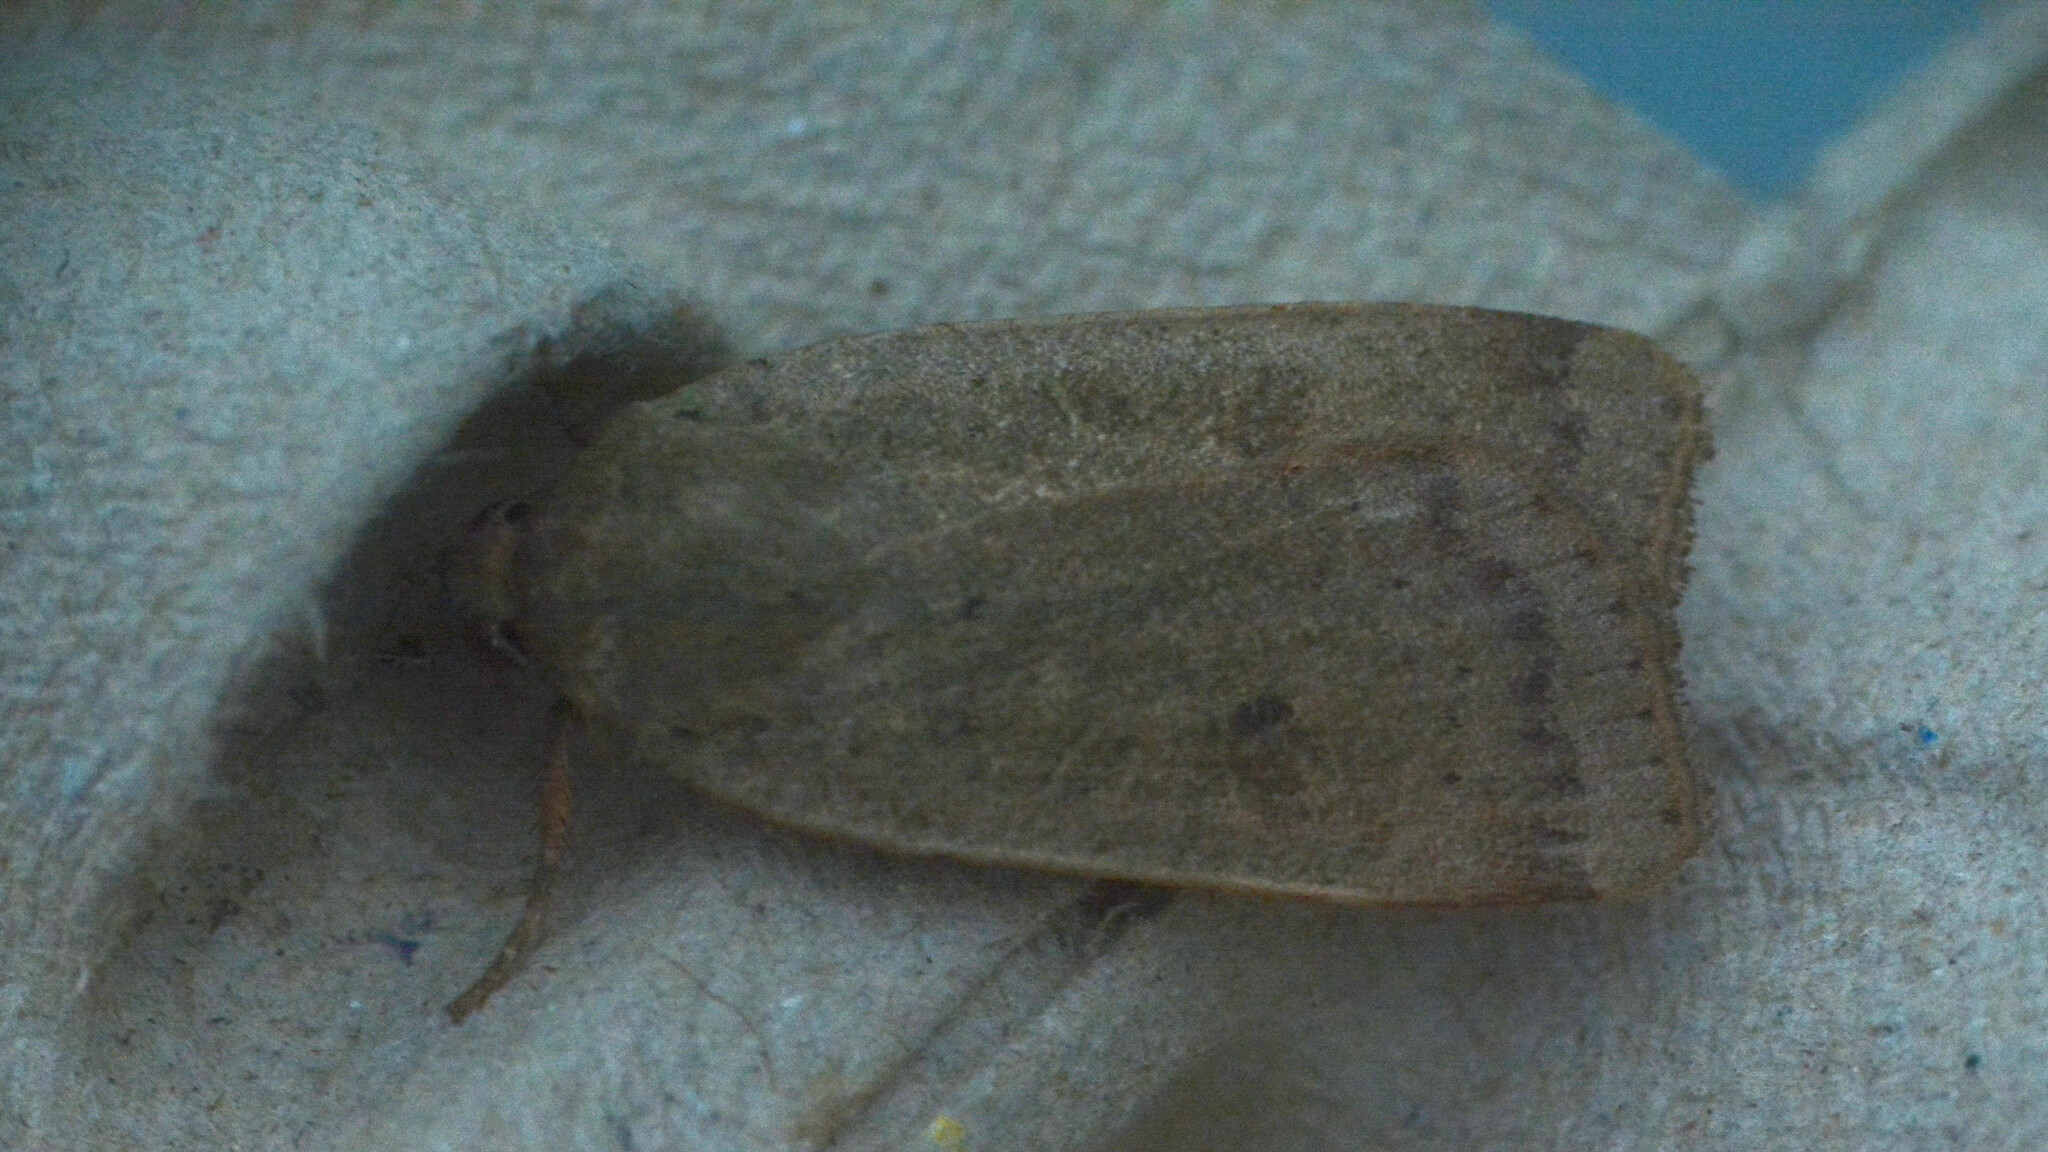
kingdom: Animalia
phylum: Arthropoda
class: Insecta
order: Lepidoptera
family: Noctuidae
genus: Noctua
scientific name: Noctua comes
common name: Lesser yellow underwing
